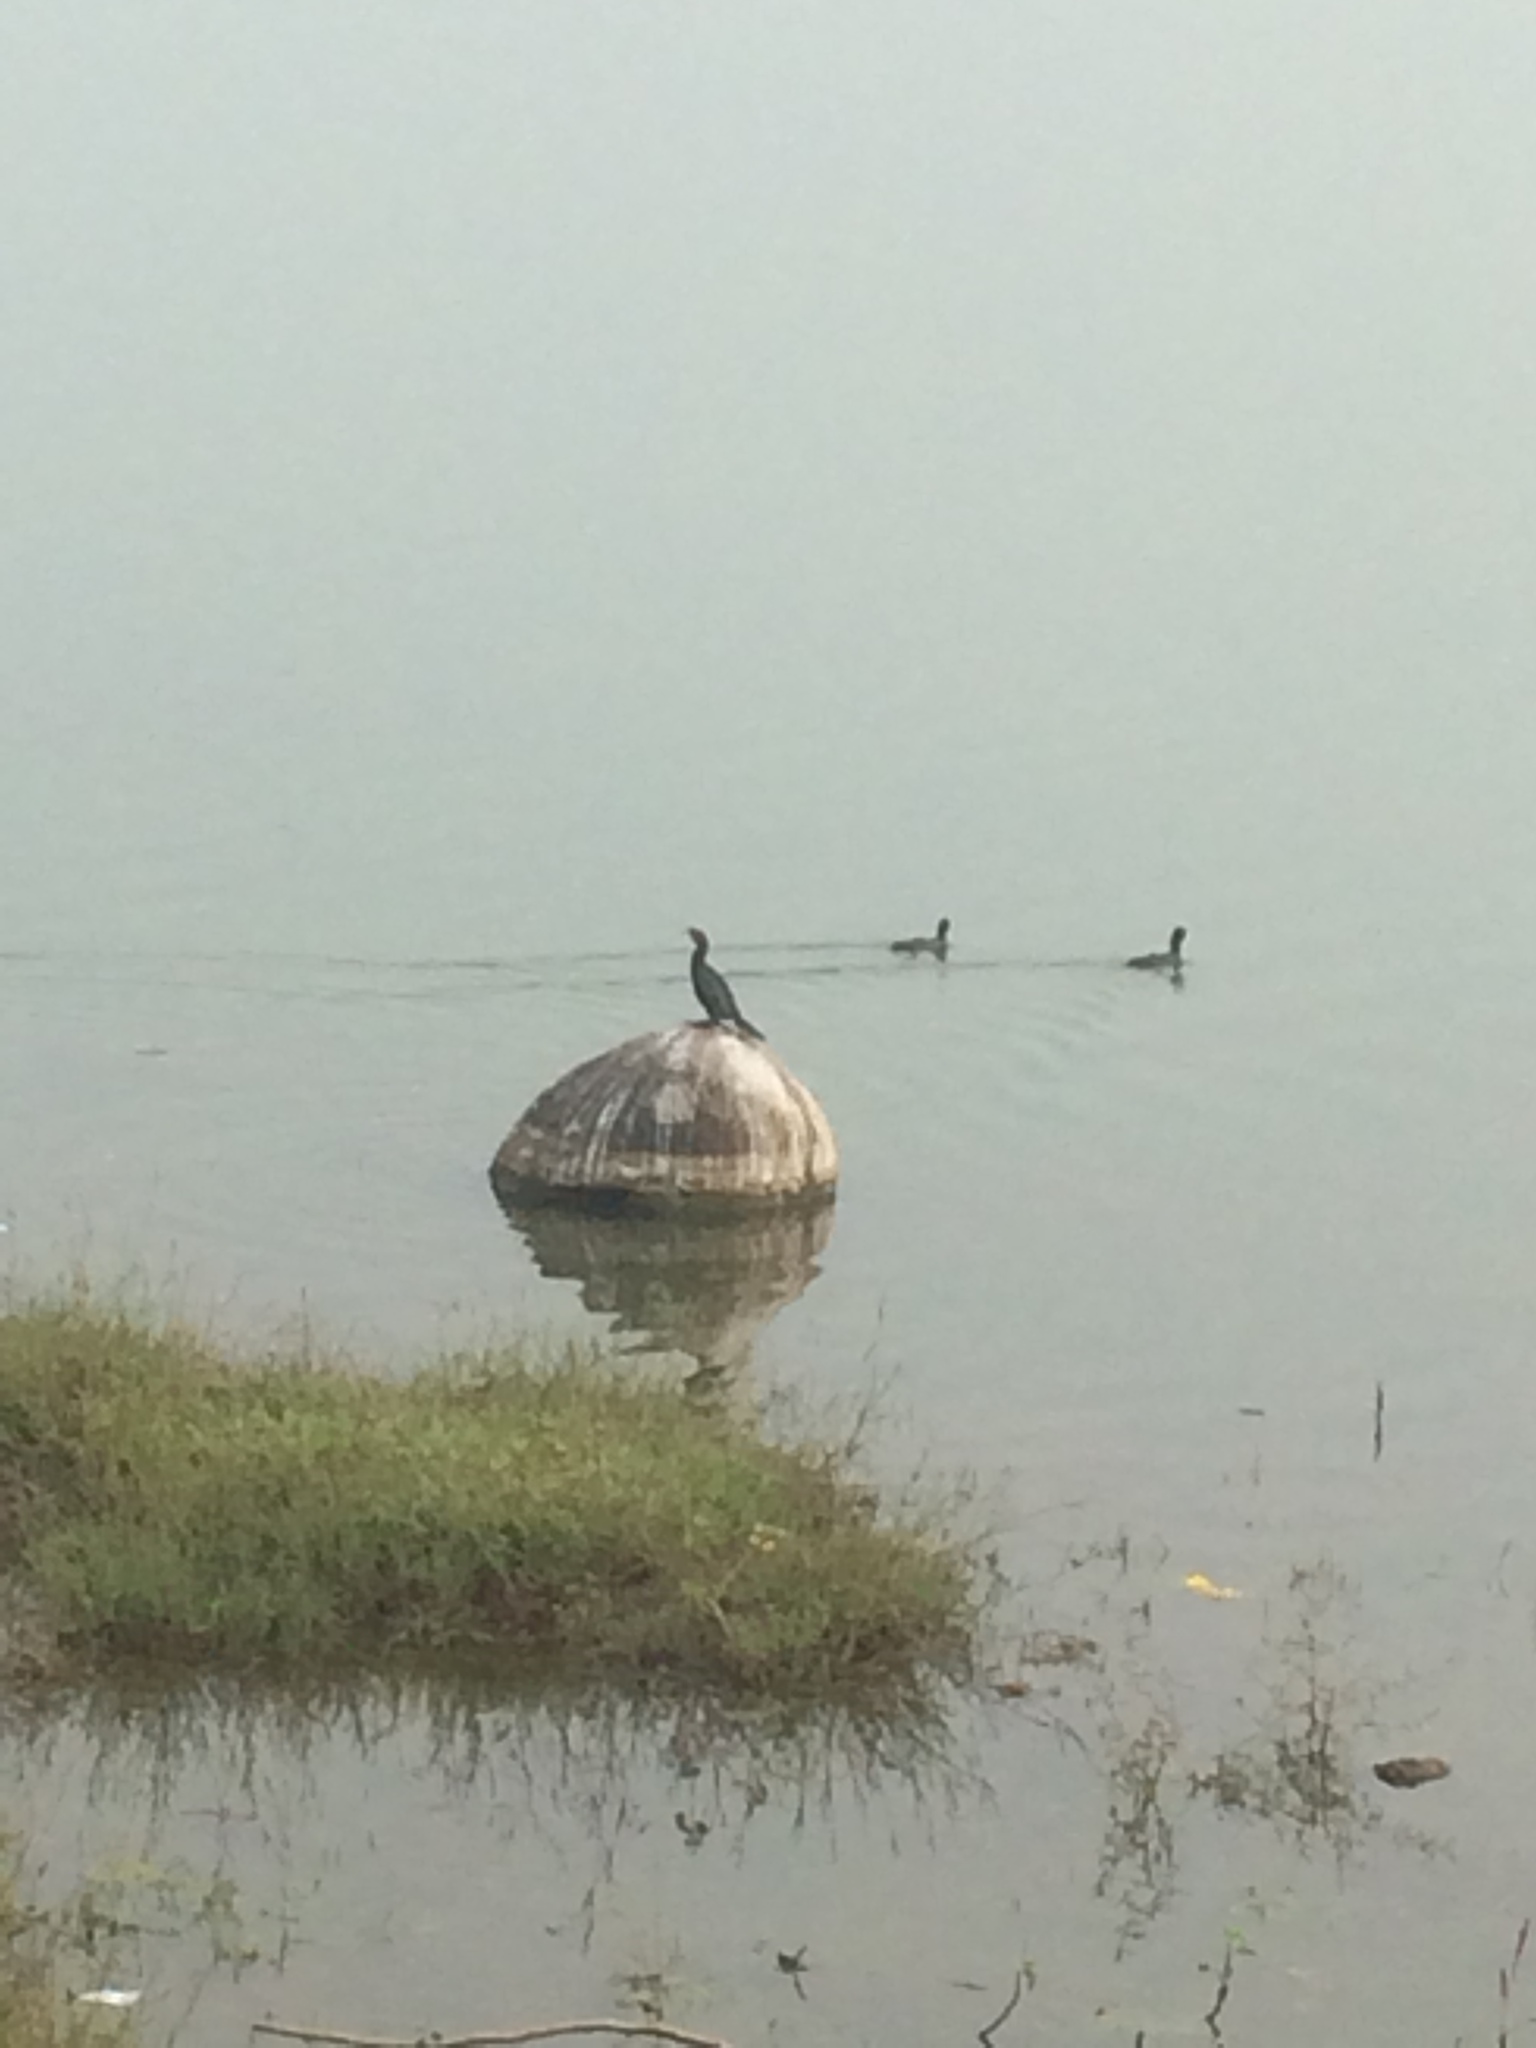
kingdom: Animalia
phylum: Chordata
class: Aves
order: Suliformes
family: Phalacrocoracidae
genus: Microcarbo
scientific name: Microcarbo niger
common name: Little cormorant
